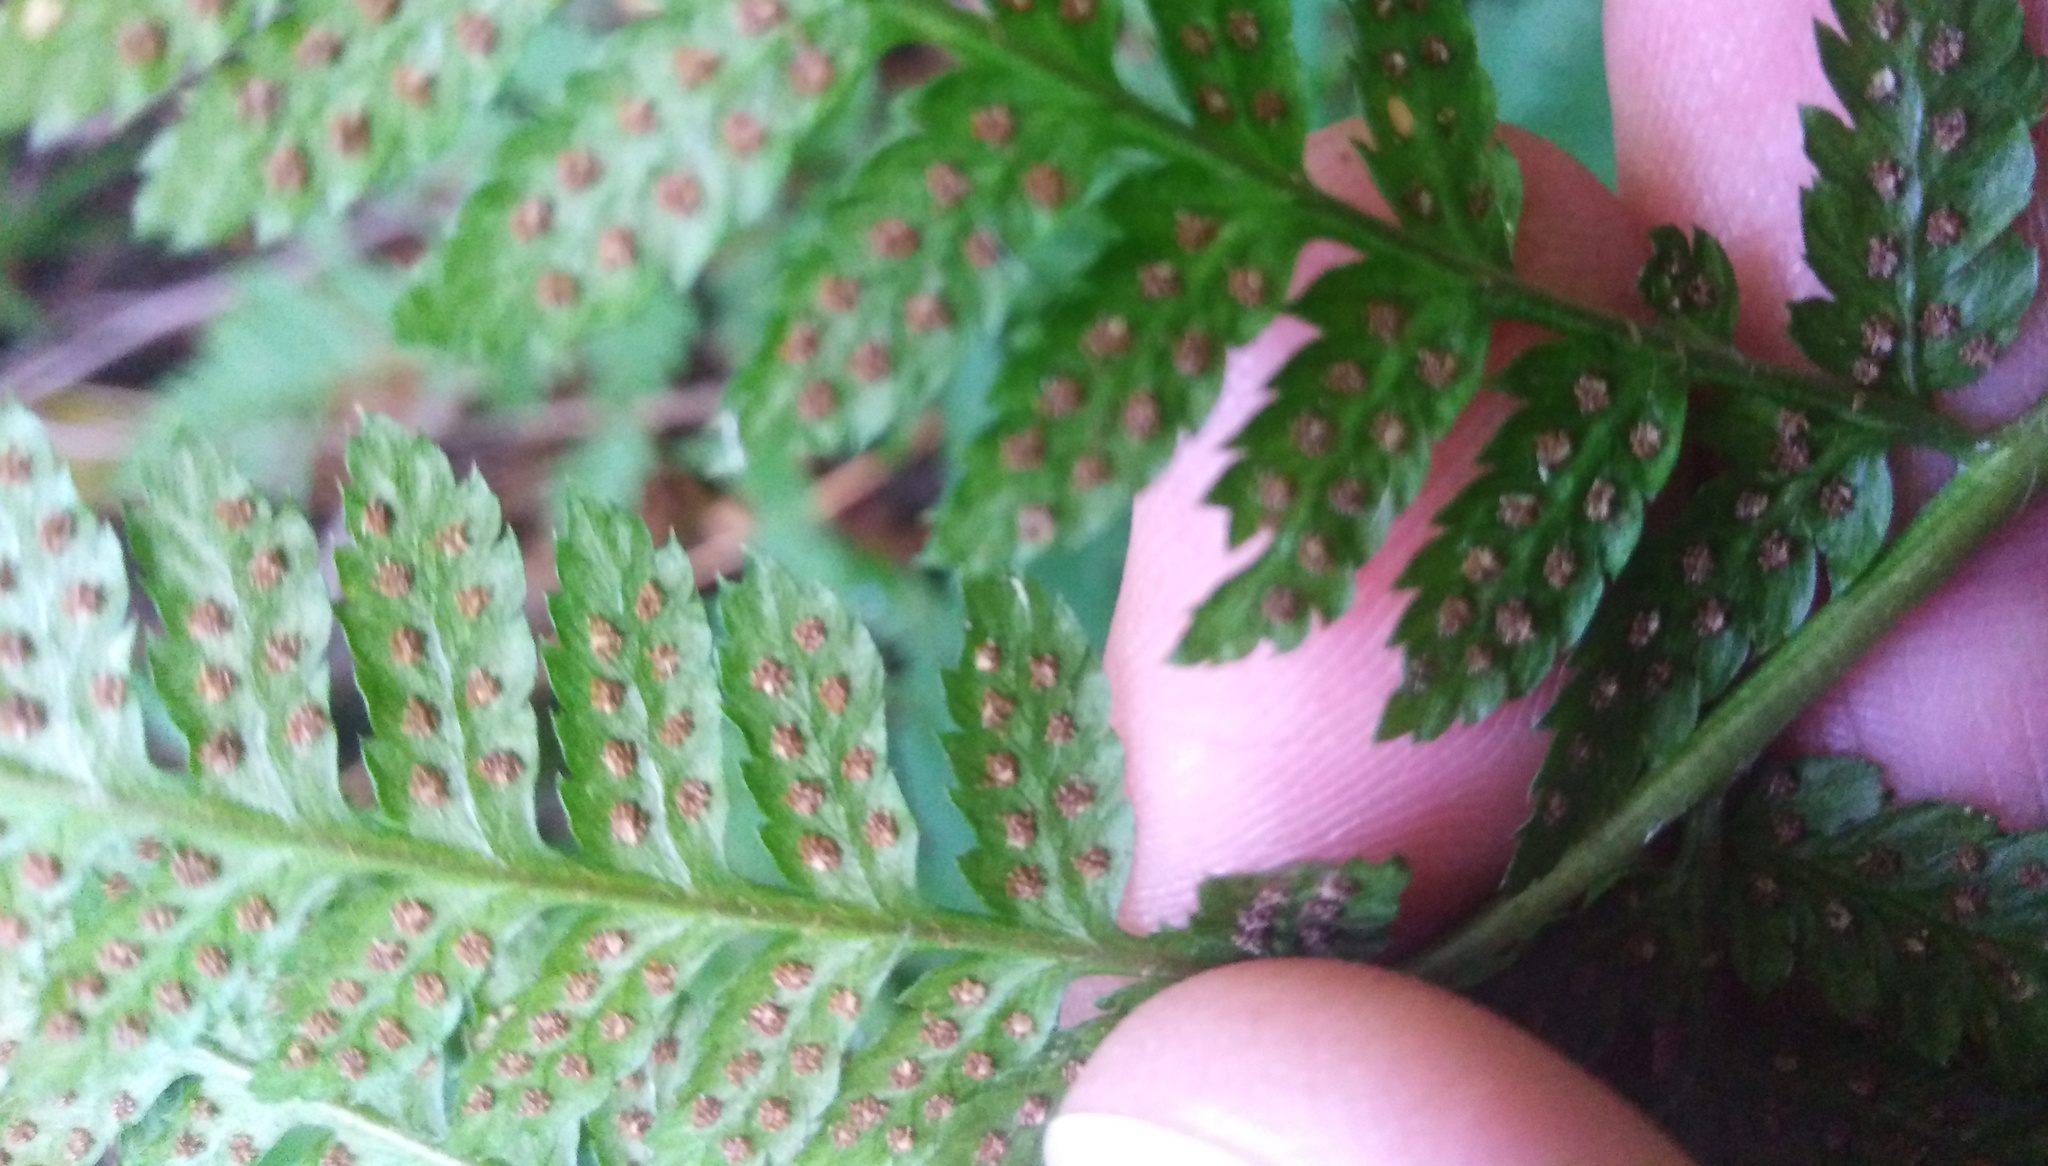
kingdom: Plantae
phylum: Tracheophyta
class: Polypodiopsida
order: Polypodiales
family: Dryopteridaceae
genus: Dryopteris
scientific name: Dryopteris carthusiana
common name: Narrow buckler-fern
